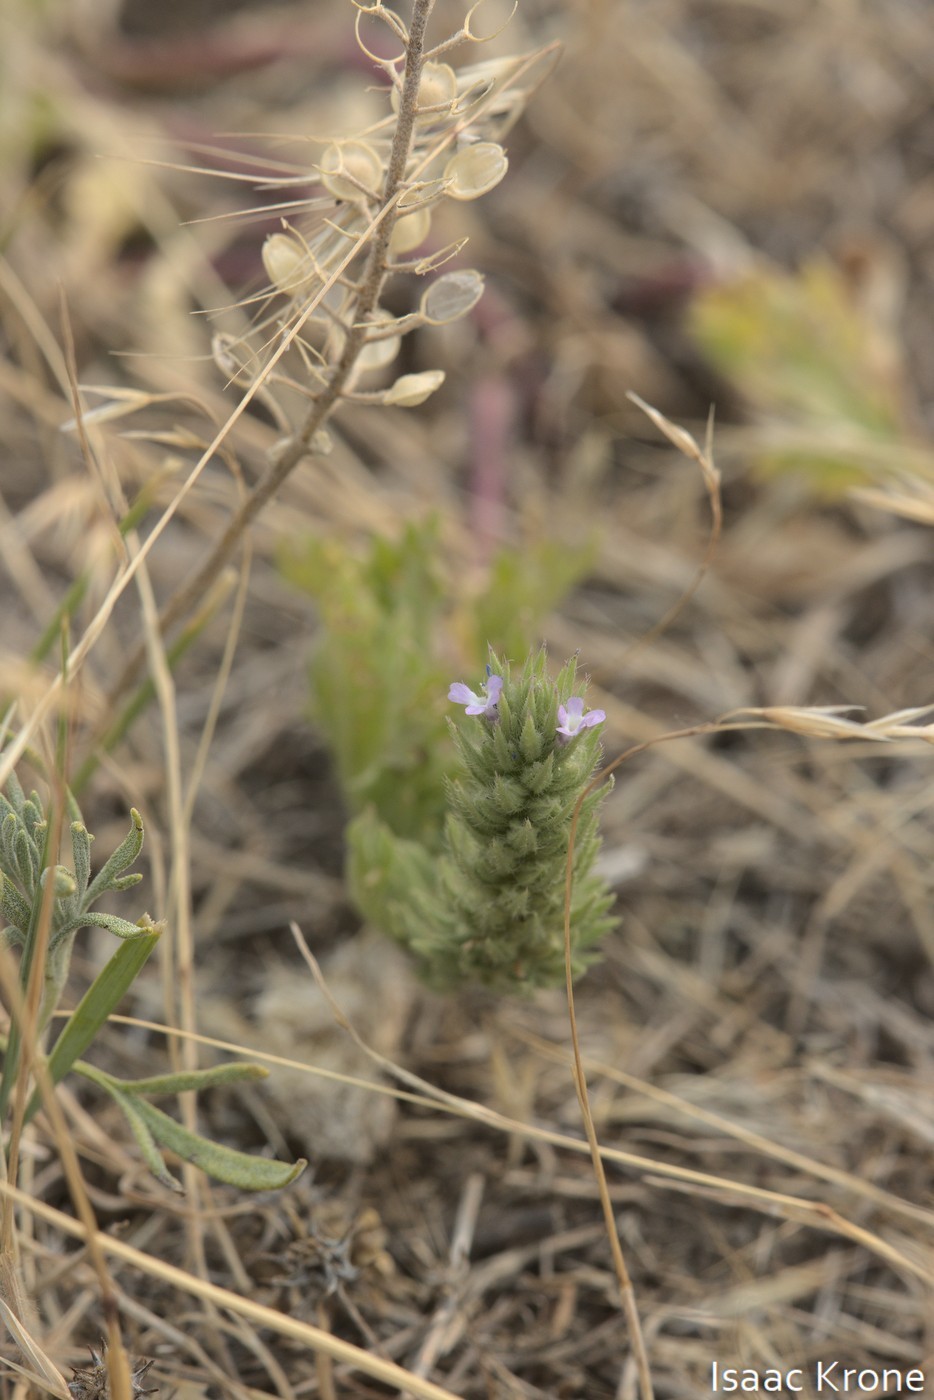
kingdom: Plantae
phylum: Tracheophyta
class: Magnoliopsida
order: Lamiales
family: Verbenaceae
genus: Verbena
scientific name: Verbena bracteata
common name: Bracted vervain
